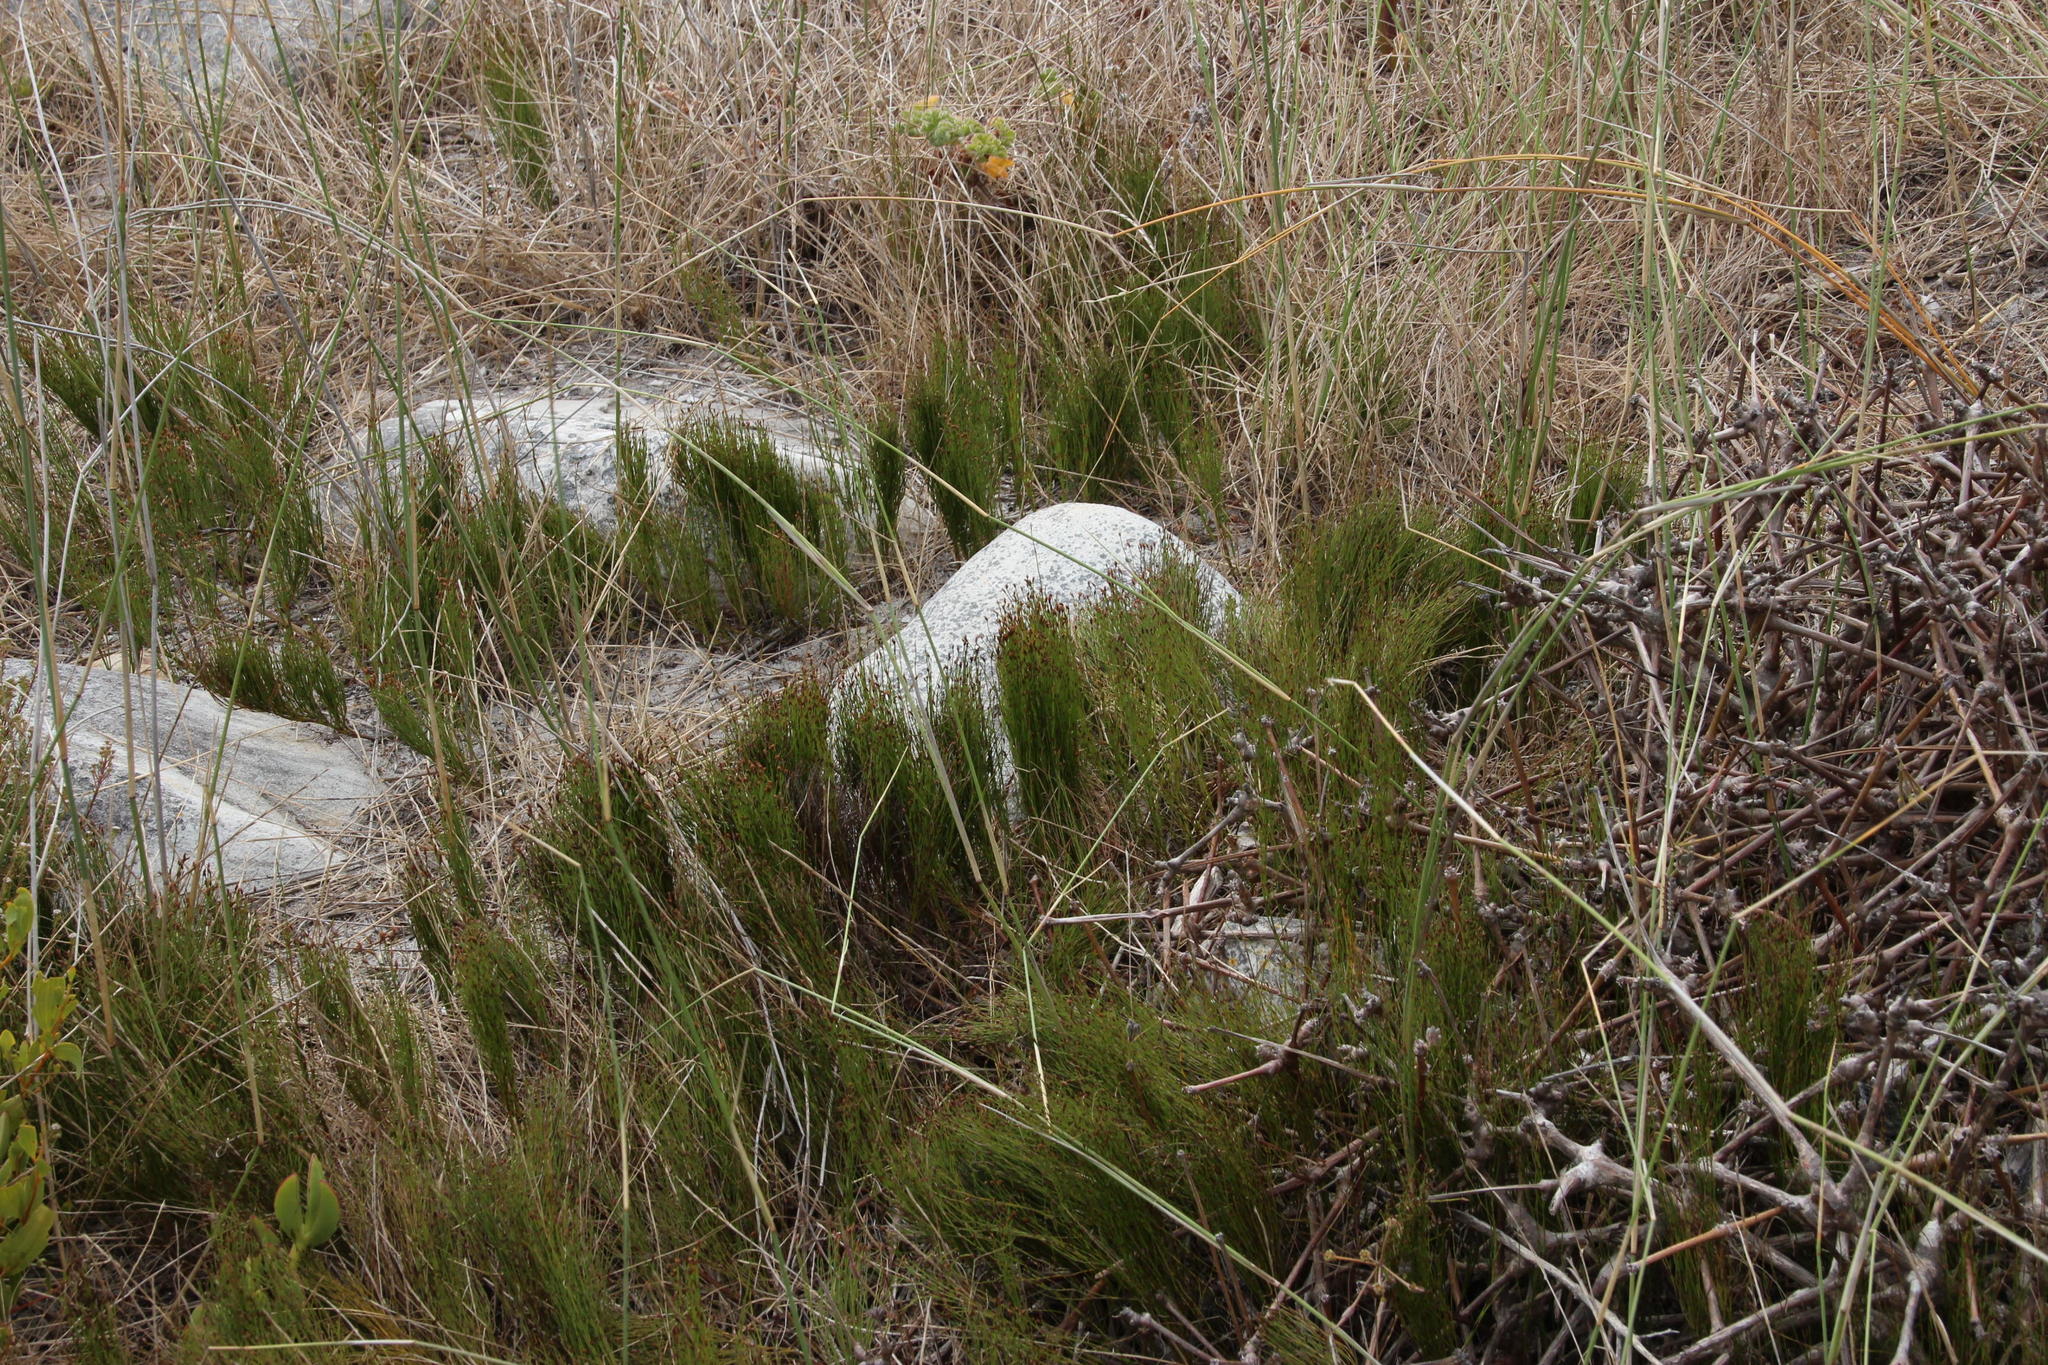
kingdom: Plantae
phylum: Tracheophyta
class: Liliopsida
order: Poales
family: Restionaceae
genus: Restio
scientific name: Restio eleocharis
